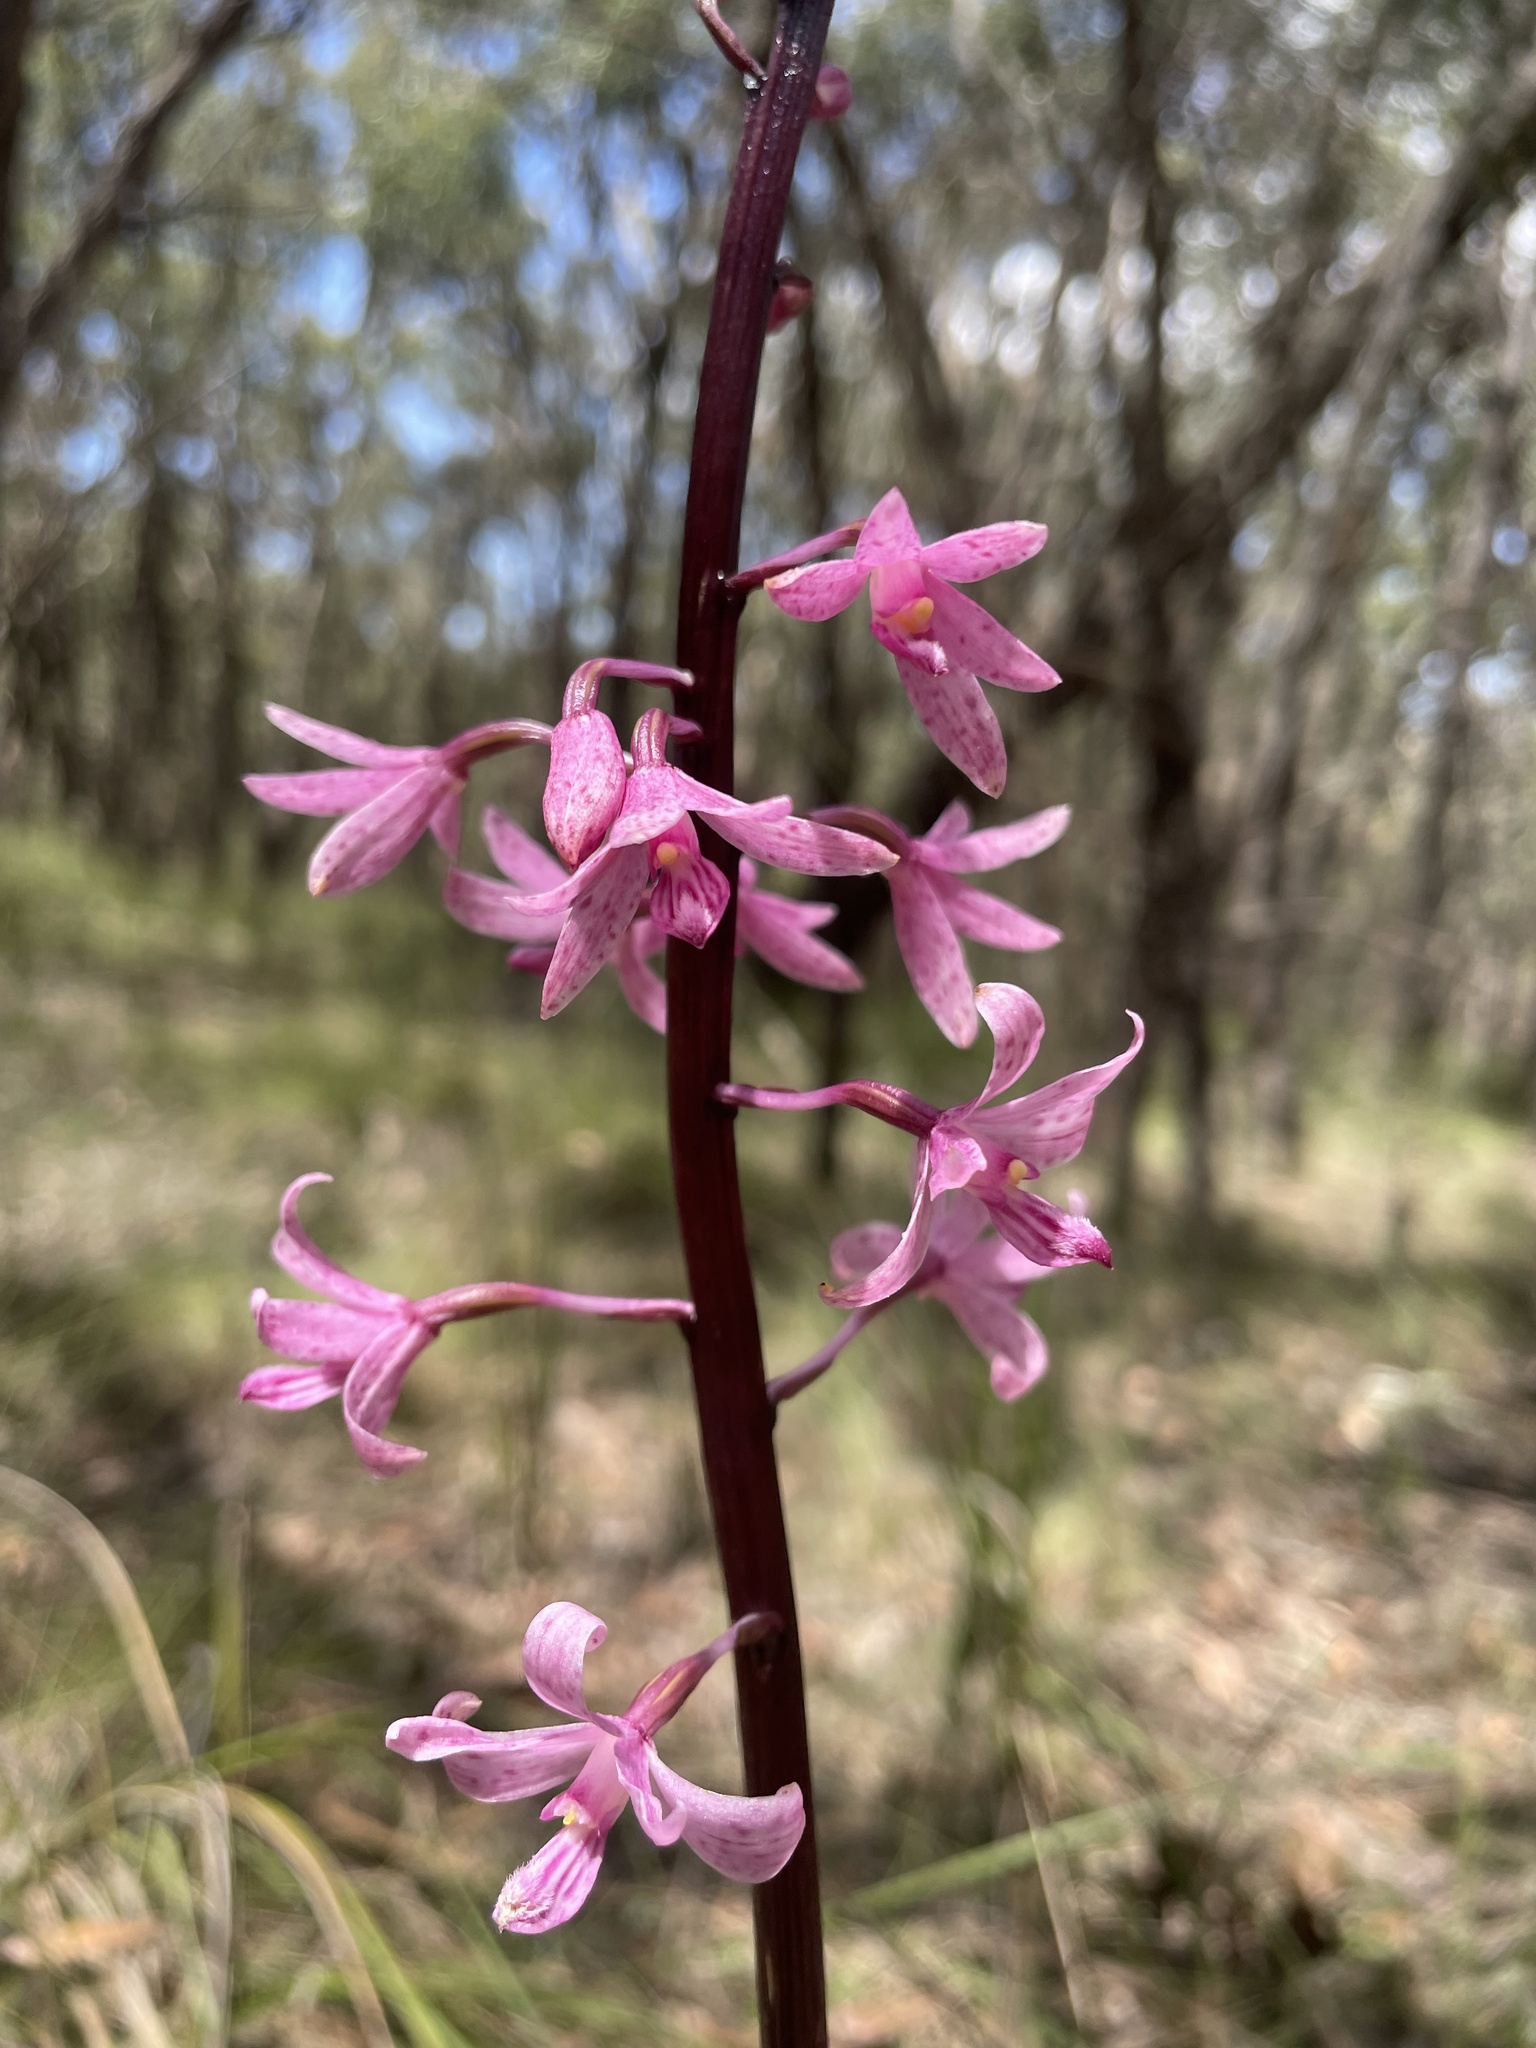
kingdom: Plantae
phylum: Tracheophyta
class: Liliopsida
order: Asparagales
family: Orchidaceae
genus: Dipodium
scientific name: Dipodium roseum
